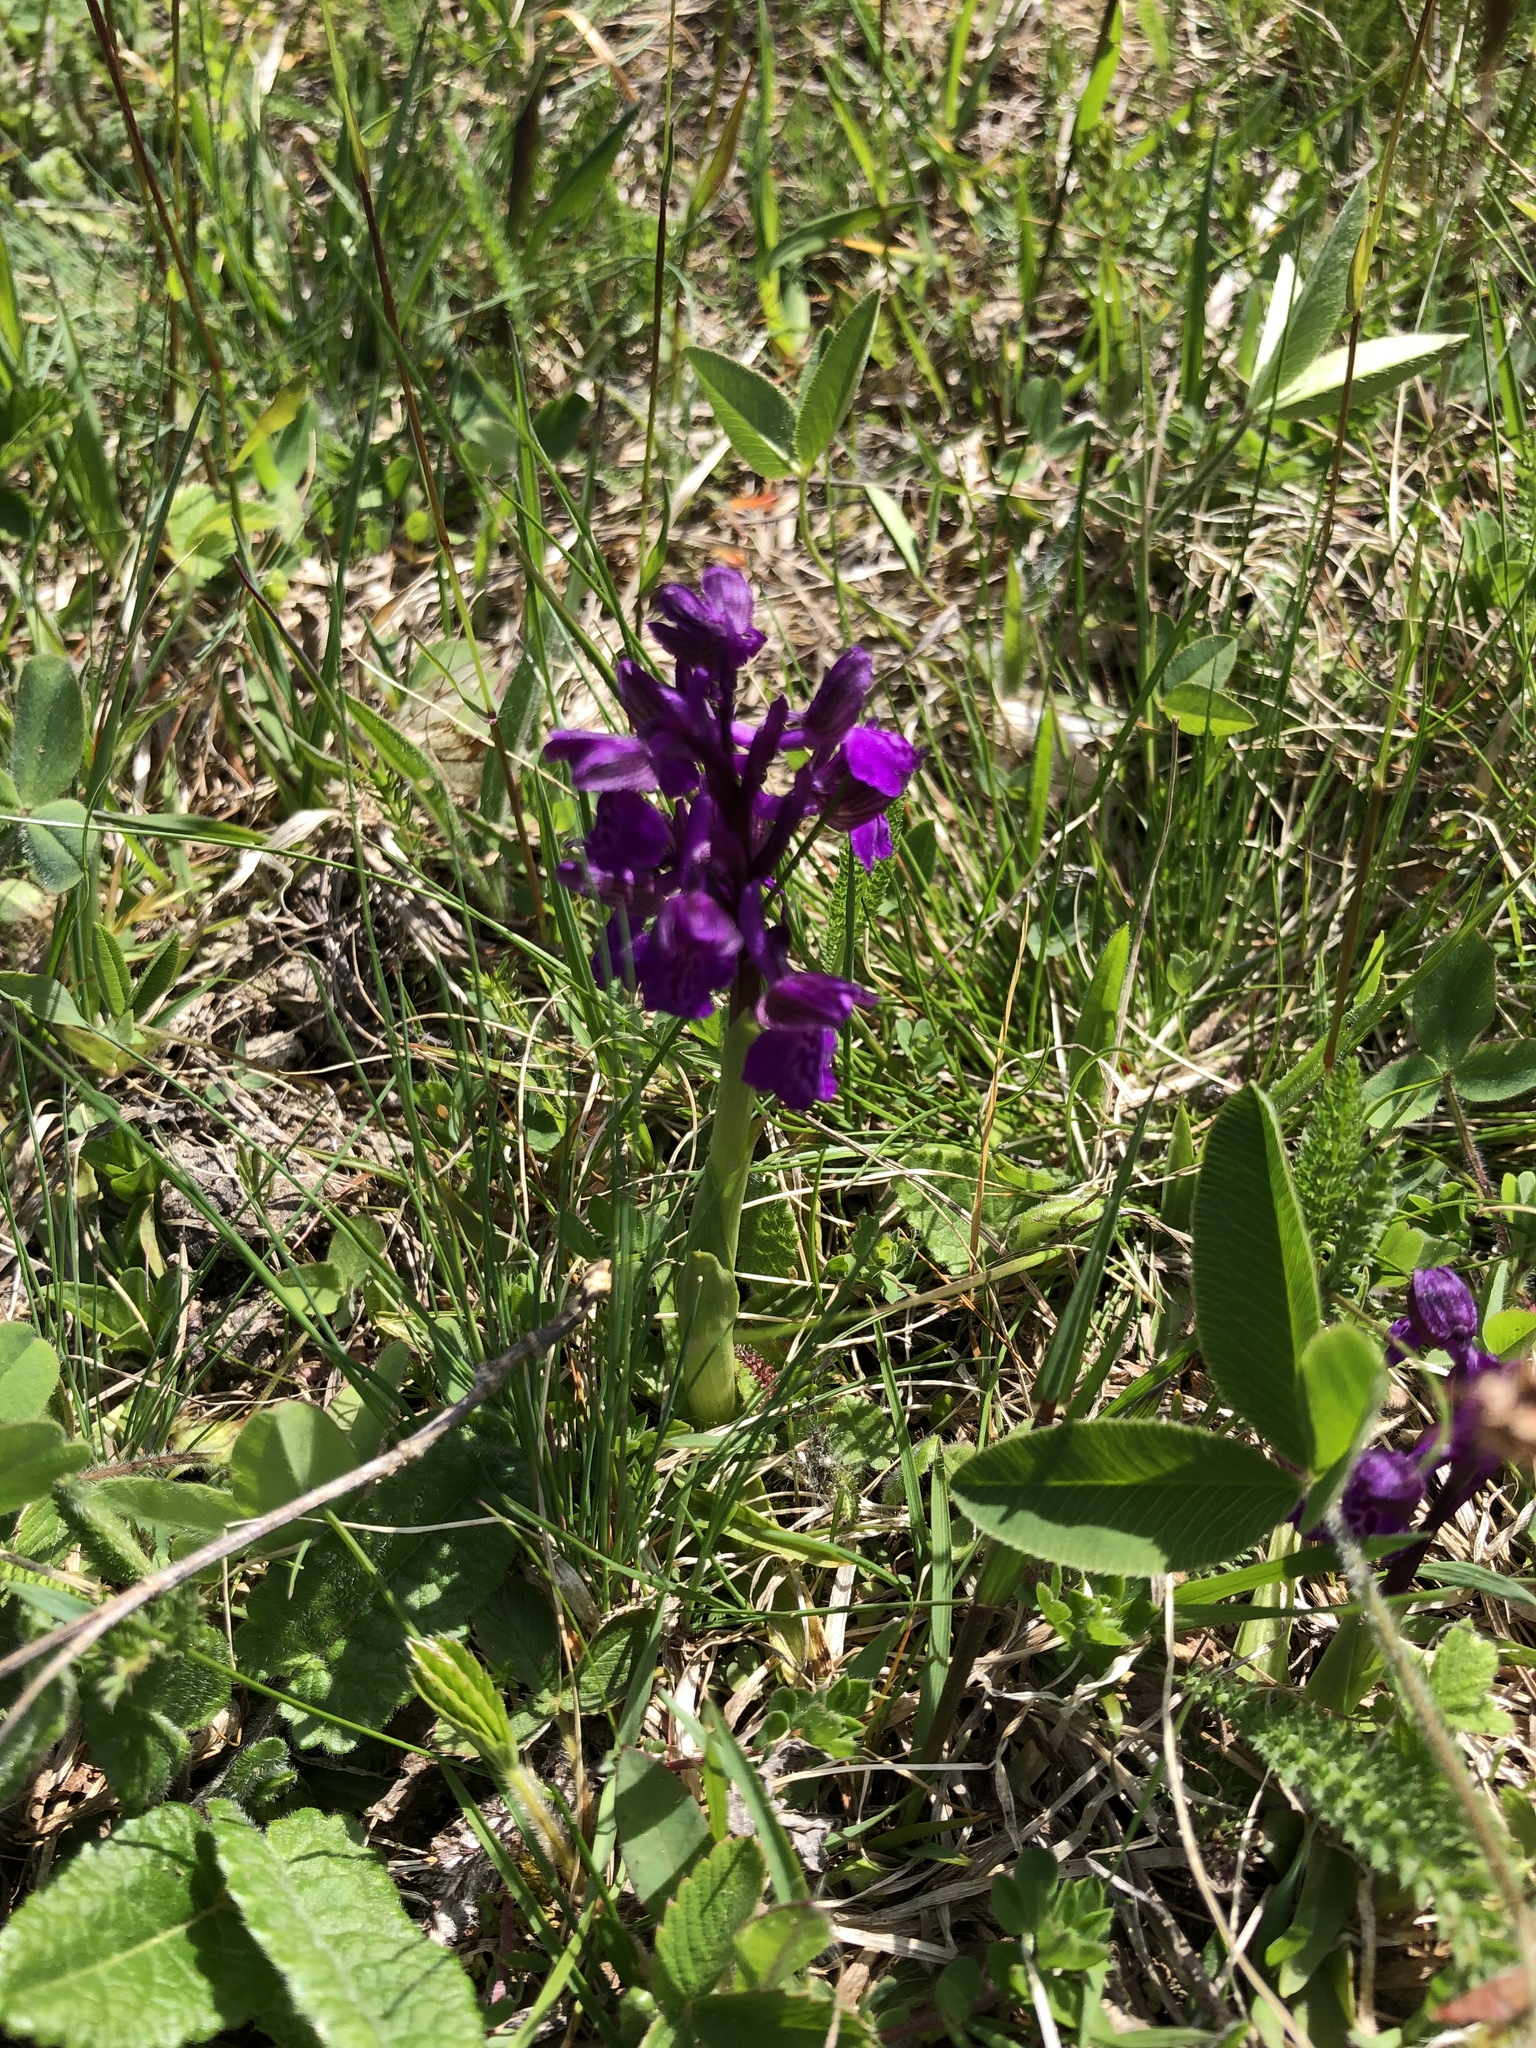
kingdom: Plantae
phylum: Tracheophyta
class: Liliopsida
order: Asparagales
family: Orchidaceae
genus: Anacamptis
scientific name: Anacamptis morio
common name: Green-winged orchid
